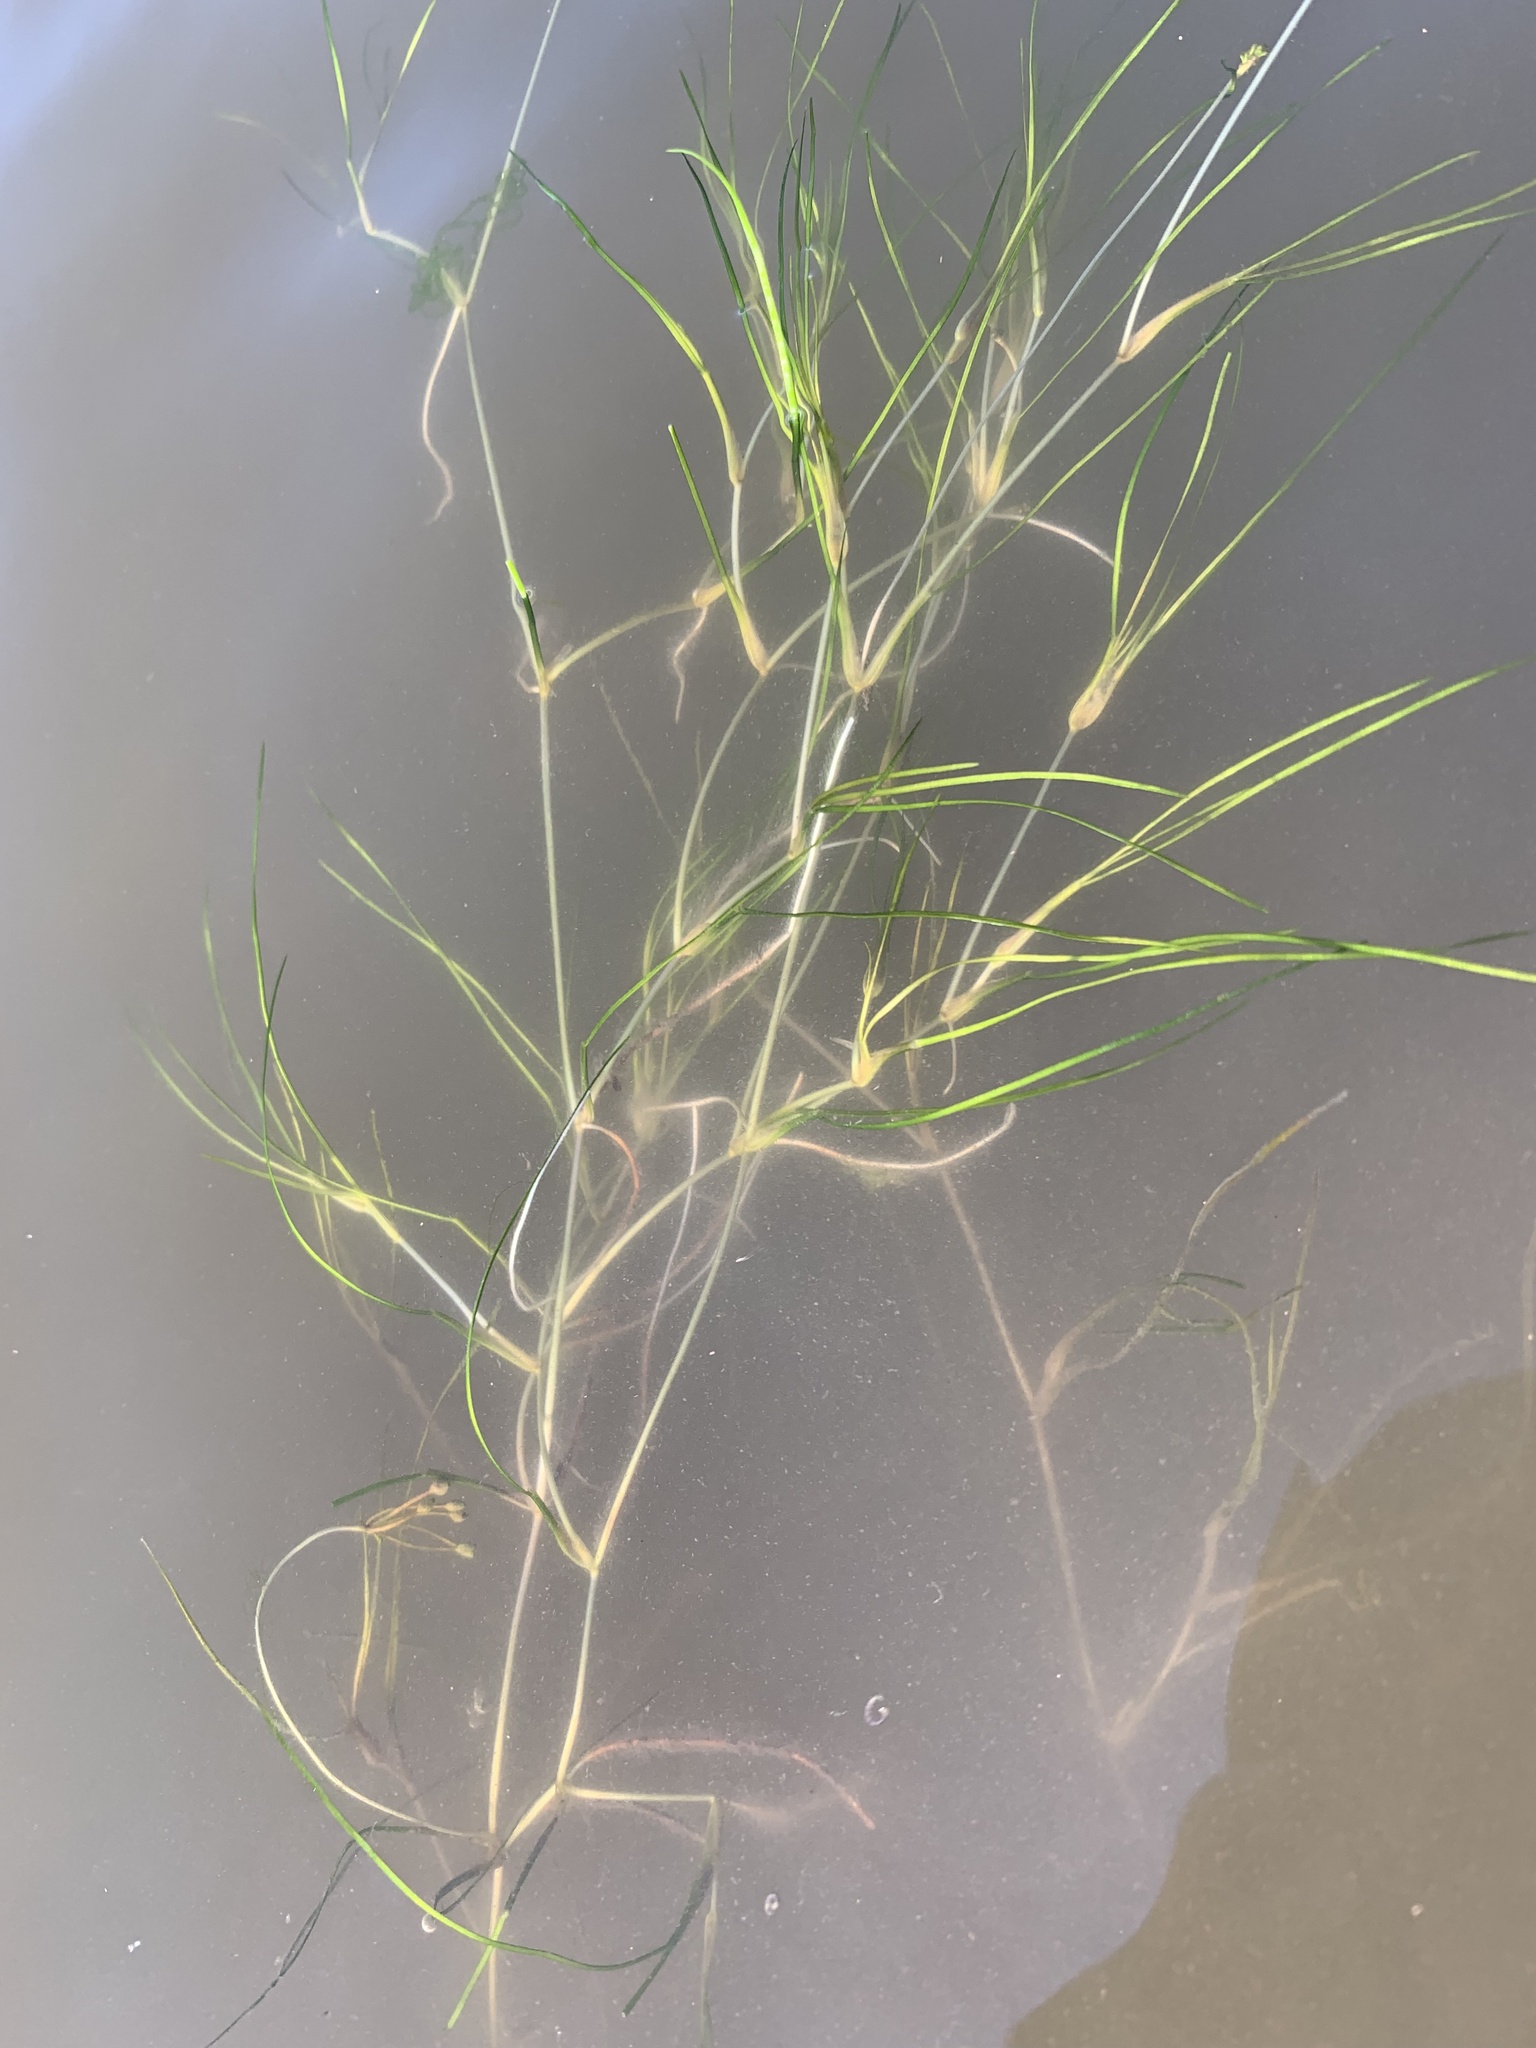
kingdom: Plantae
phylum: Tracheophyta
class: Liliopsida
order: Alismatales
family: Ruppiaceae
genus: Ruppia
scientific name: Ruppia maritima
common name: Beaked tasselweed
